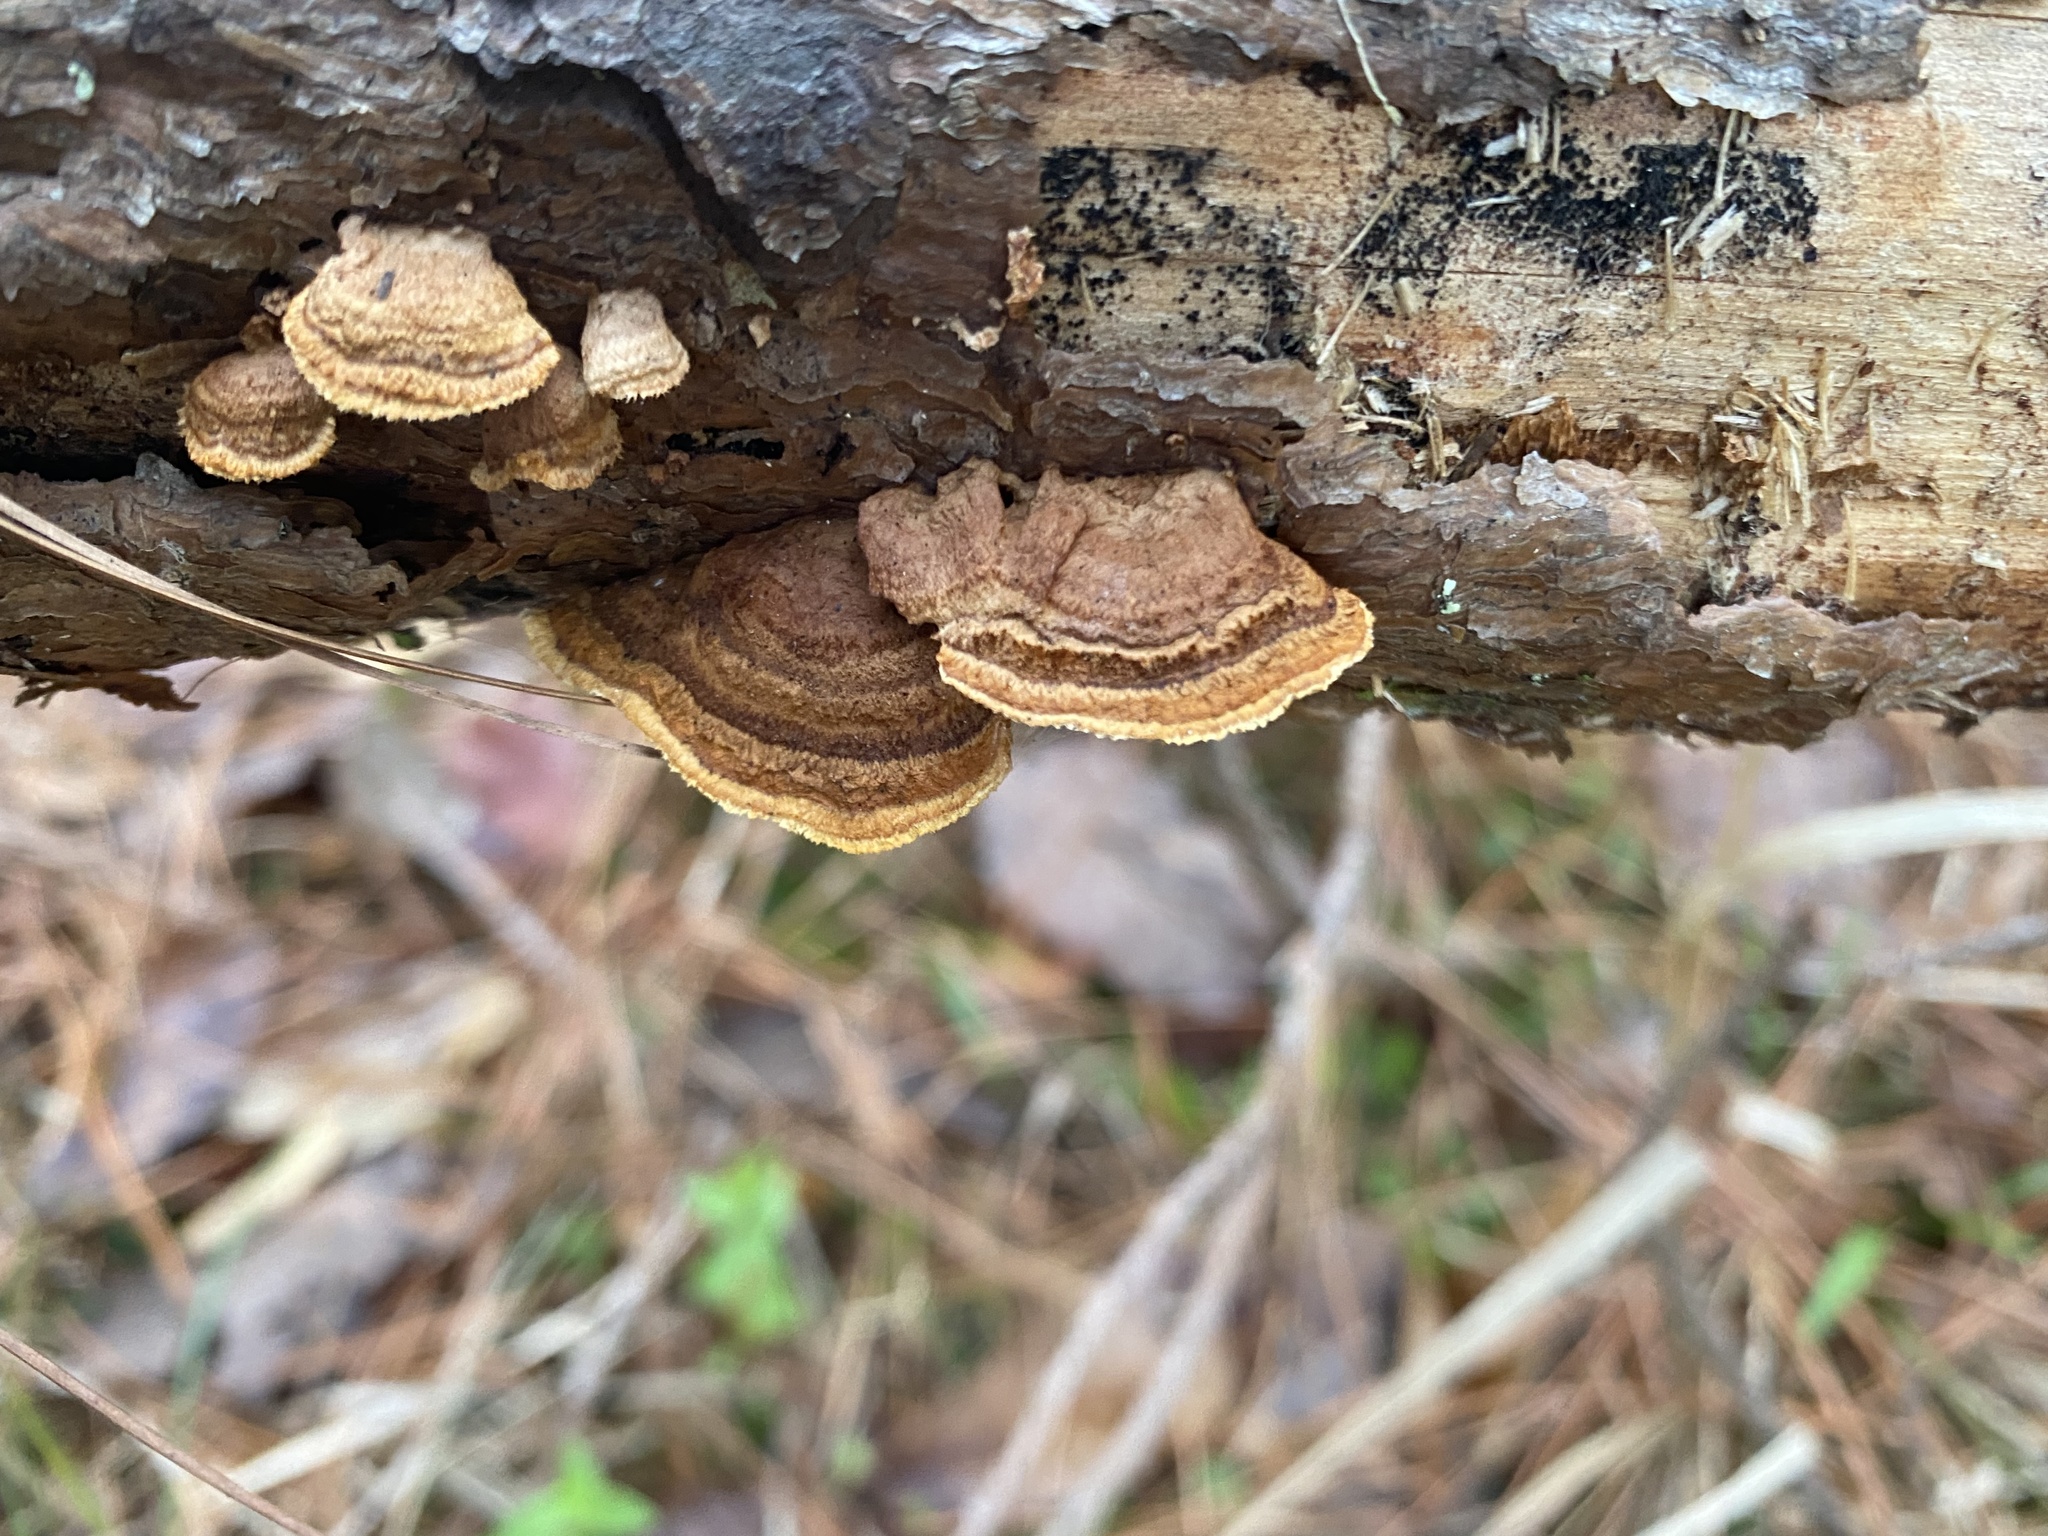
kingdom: Fungi
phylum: Basidiomycota
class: Agaricomycetes
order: Gloeophyllales
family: Gloeophyllaceae
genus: Gloeophyllum
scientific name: Gloeophyllum sepiarium
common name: Conifer mazegill
